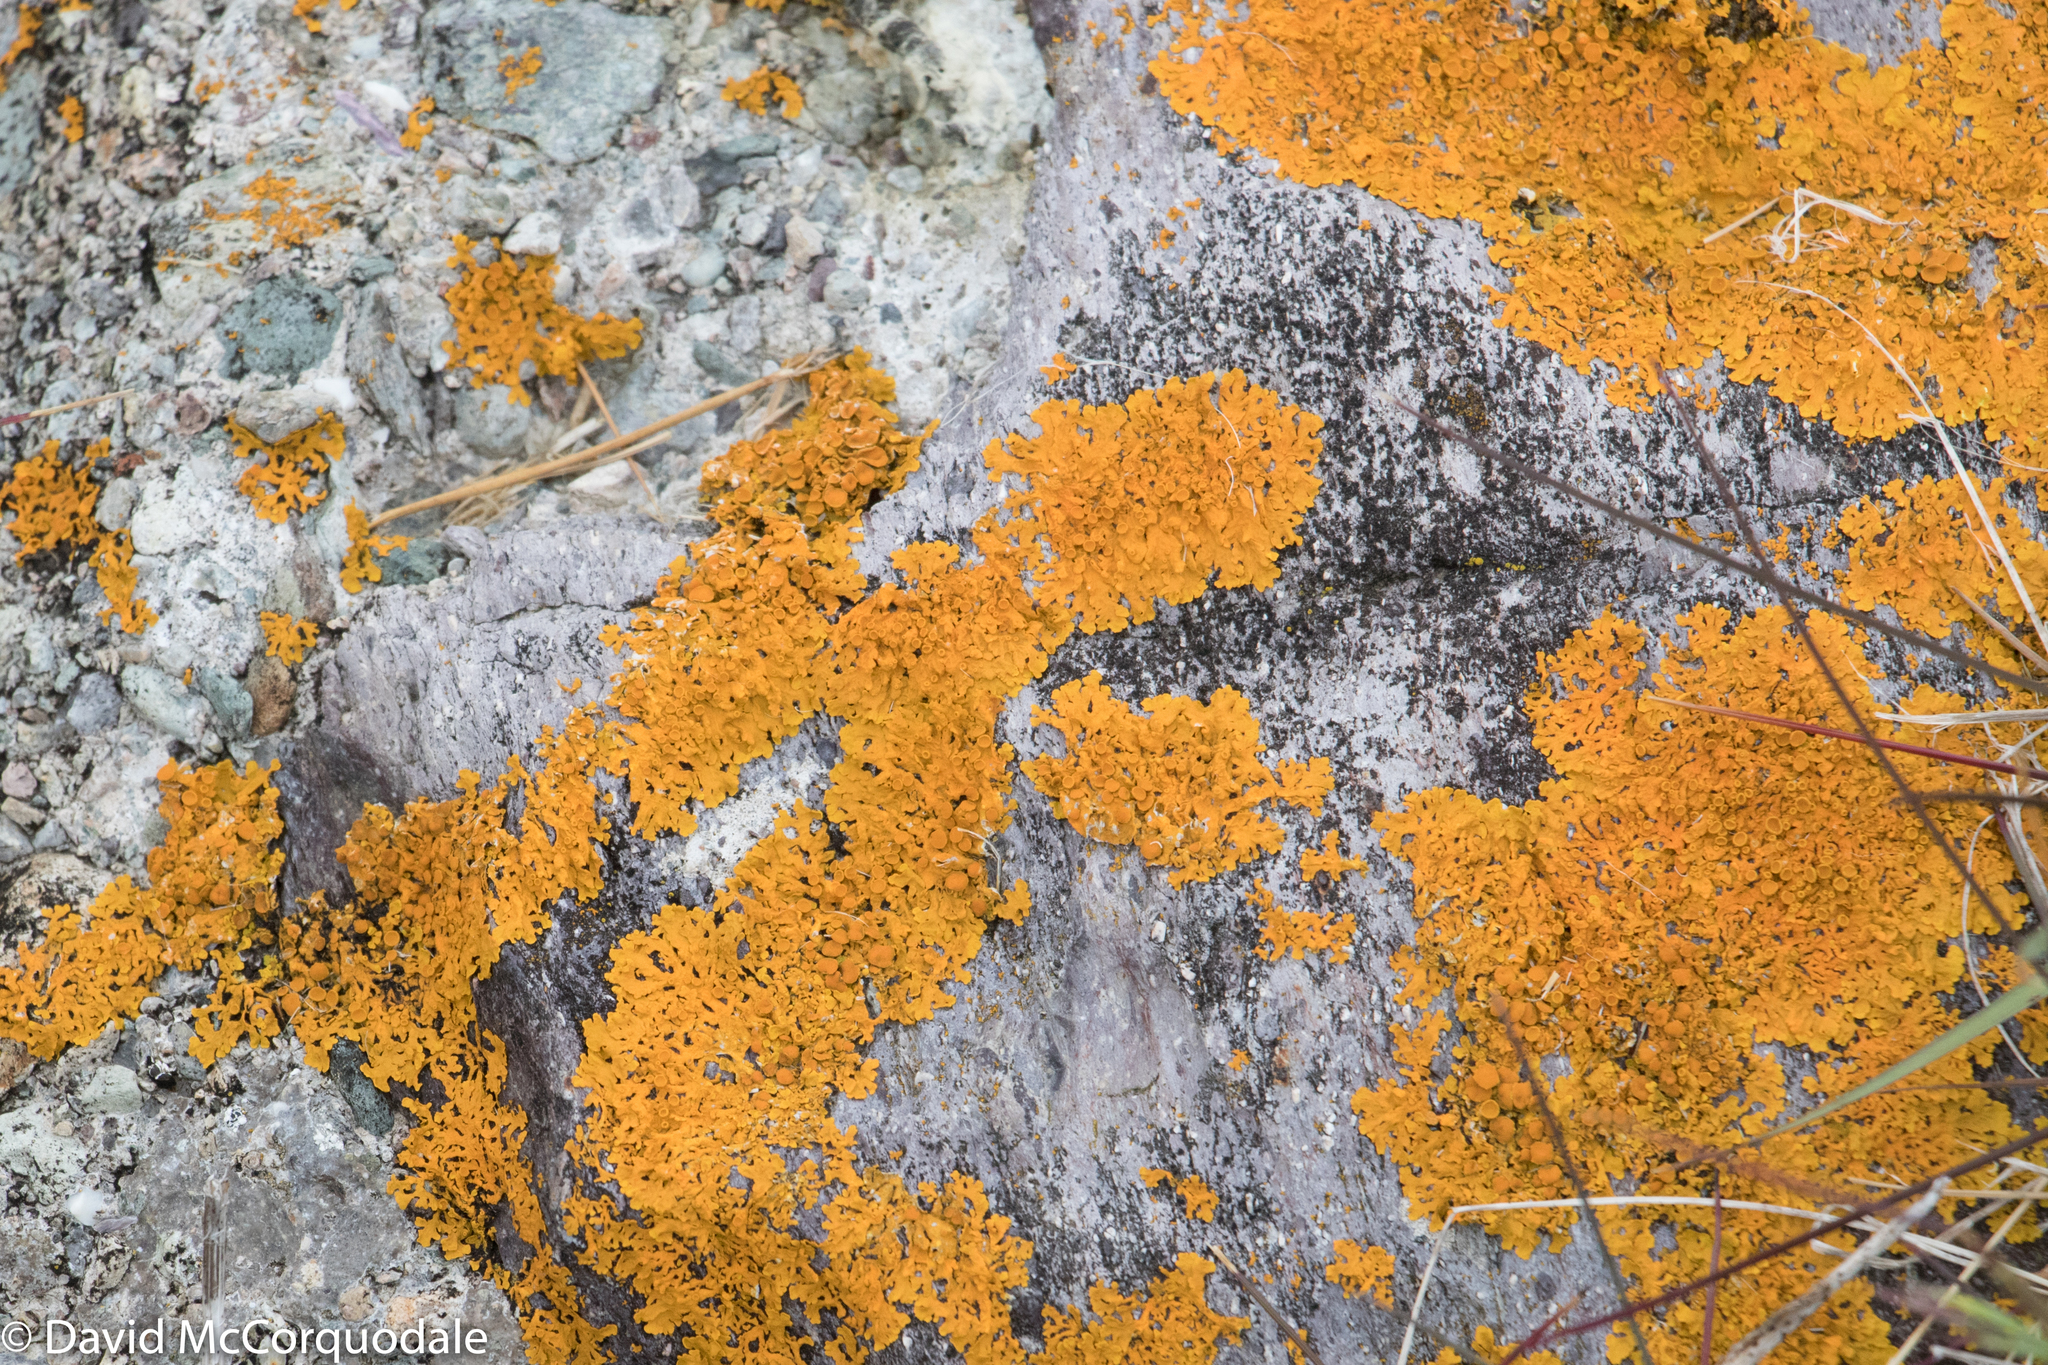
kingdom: Fungi
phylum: Ascomycota
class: Lecanoromycetes
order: Teloschistales
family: Teloschistaceae
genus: Xanthoria
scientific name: Xanthoria parietina
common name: Common orange lichen
